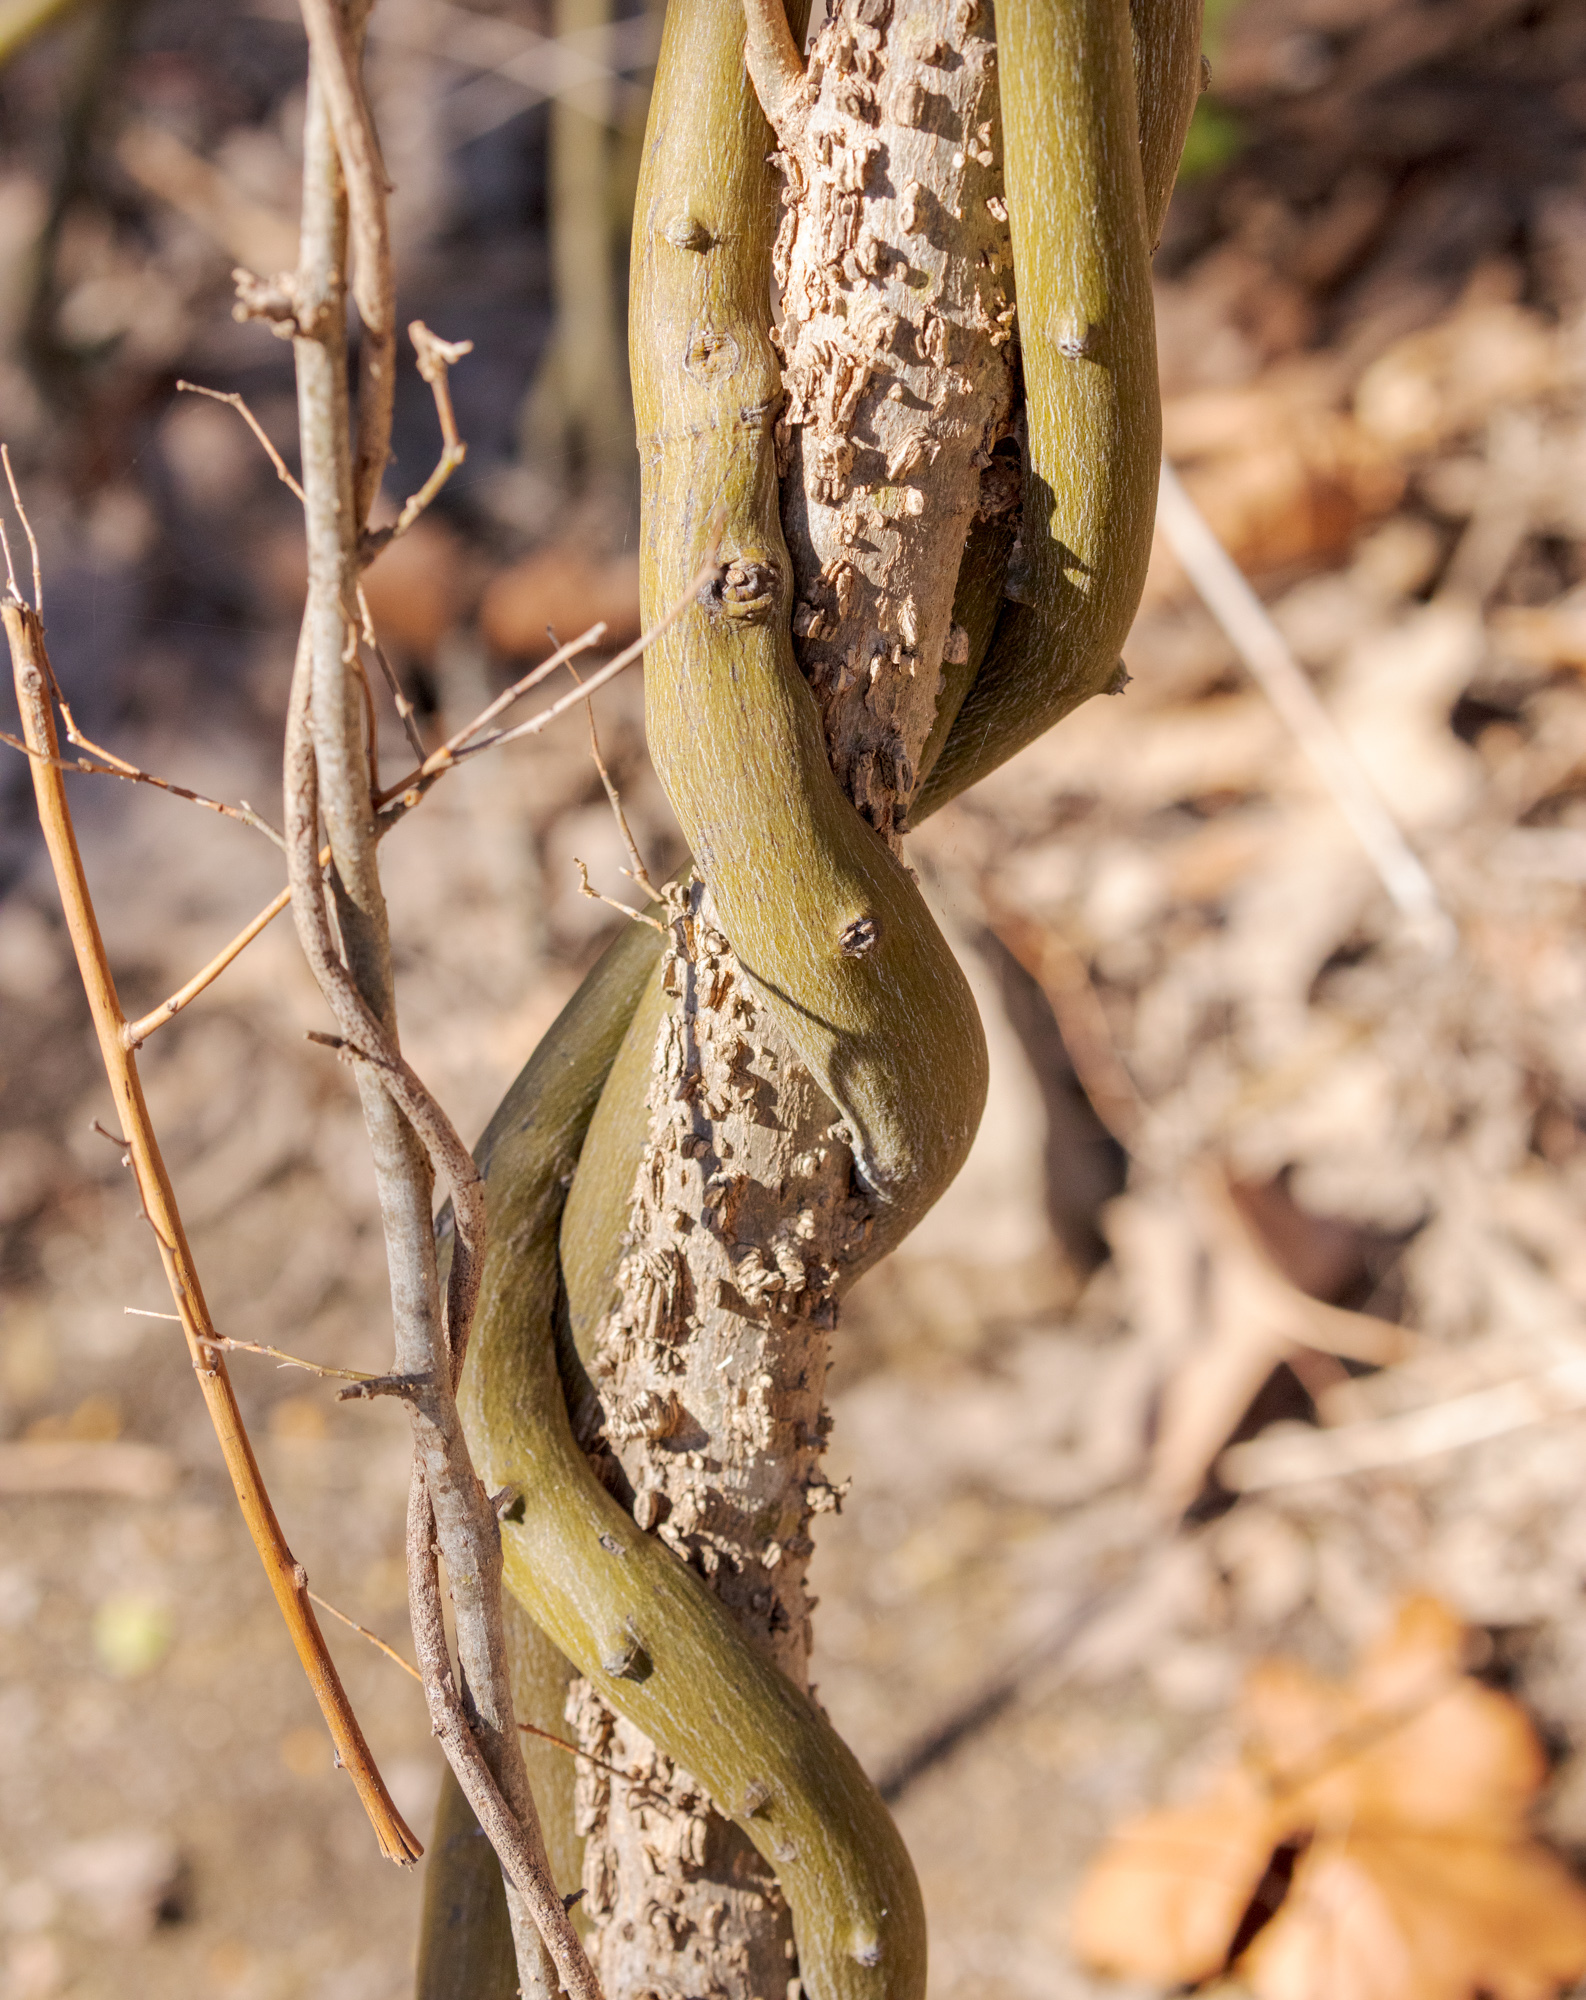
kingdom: Plantae
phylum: Tracheophyta
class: Magnoliopsida
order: Rosales
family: Rhamnaceae
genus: Berchemia
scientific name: Berchemia scandens
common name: Supplejack
